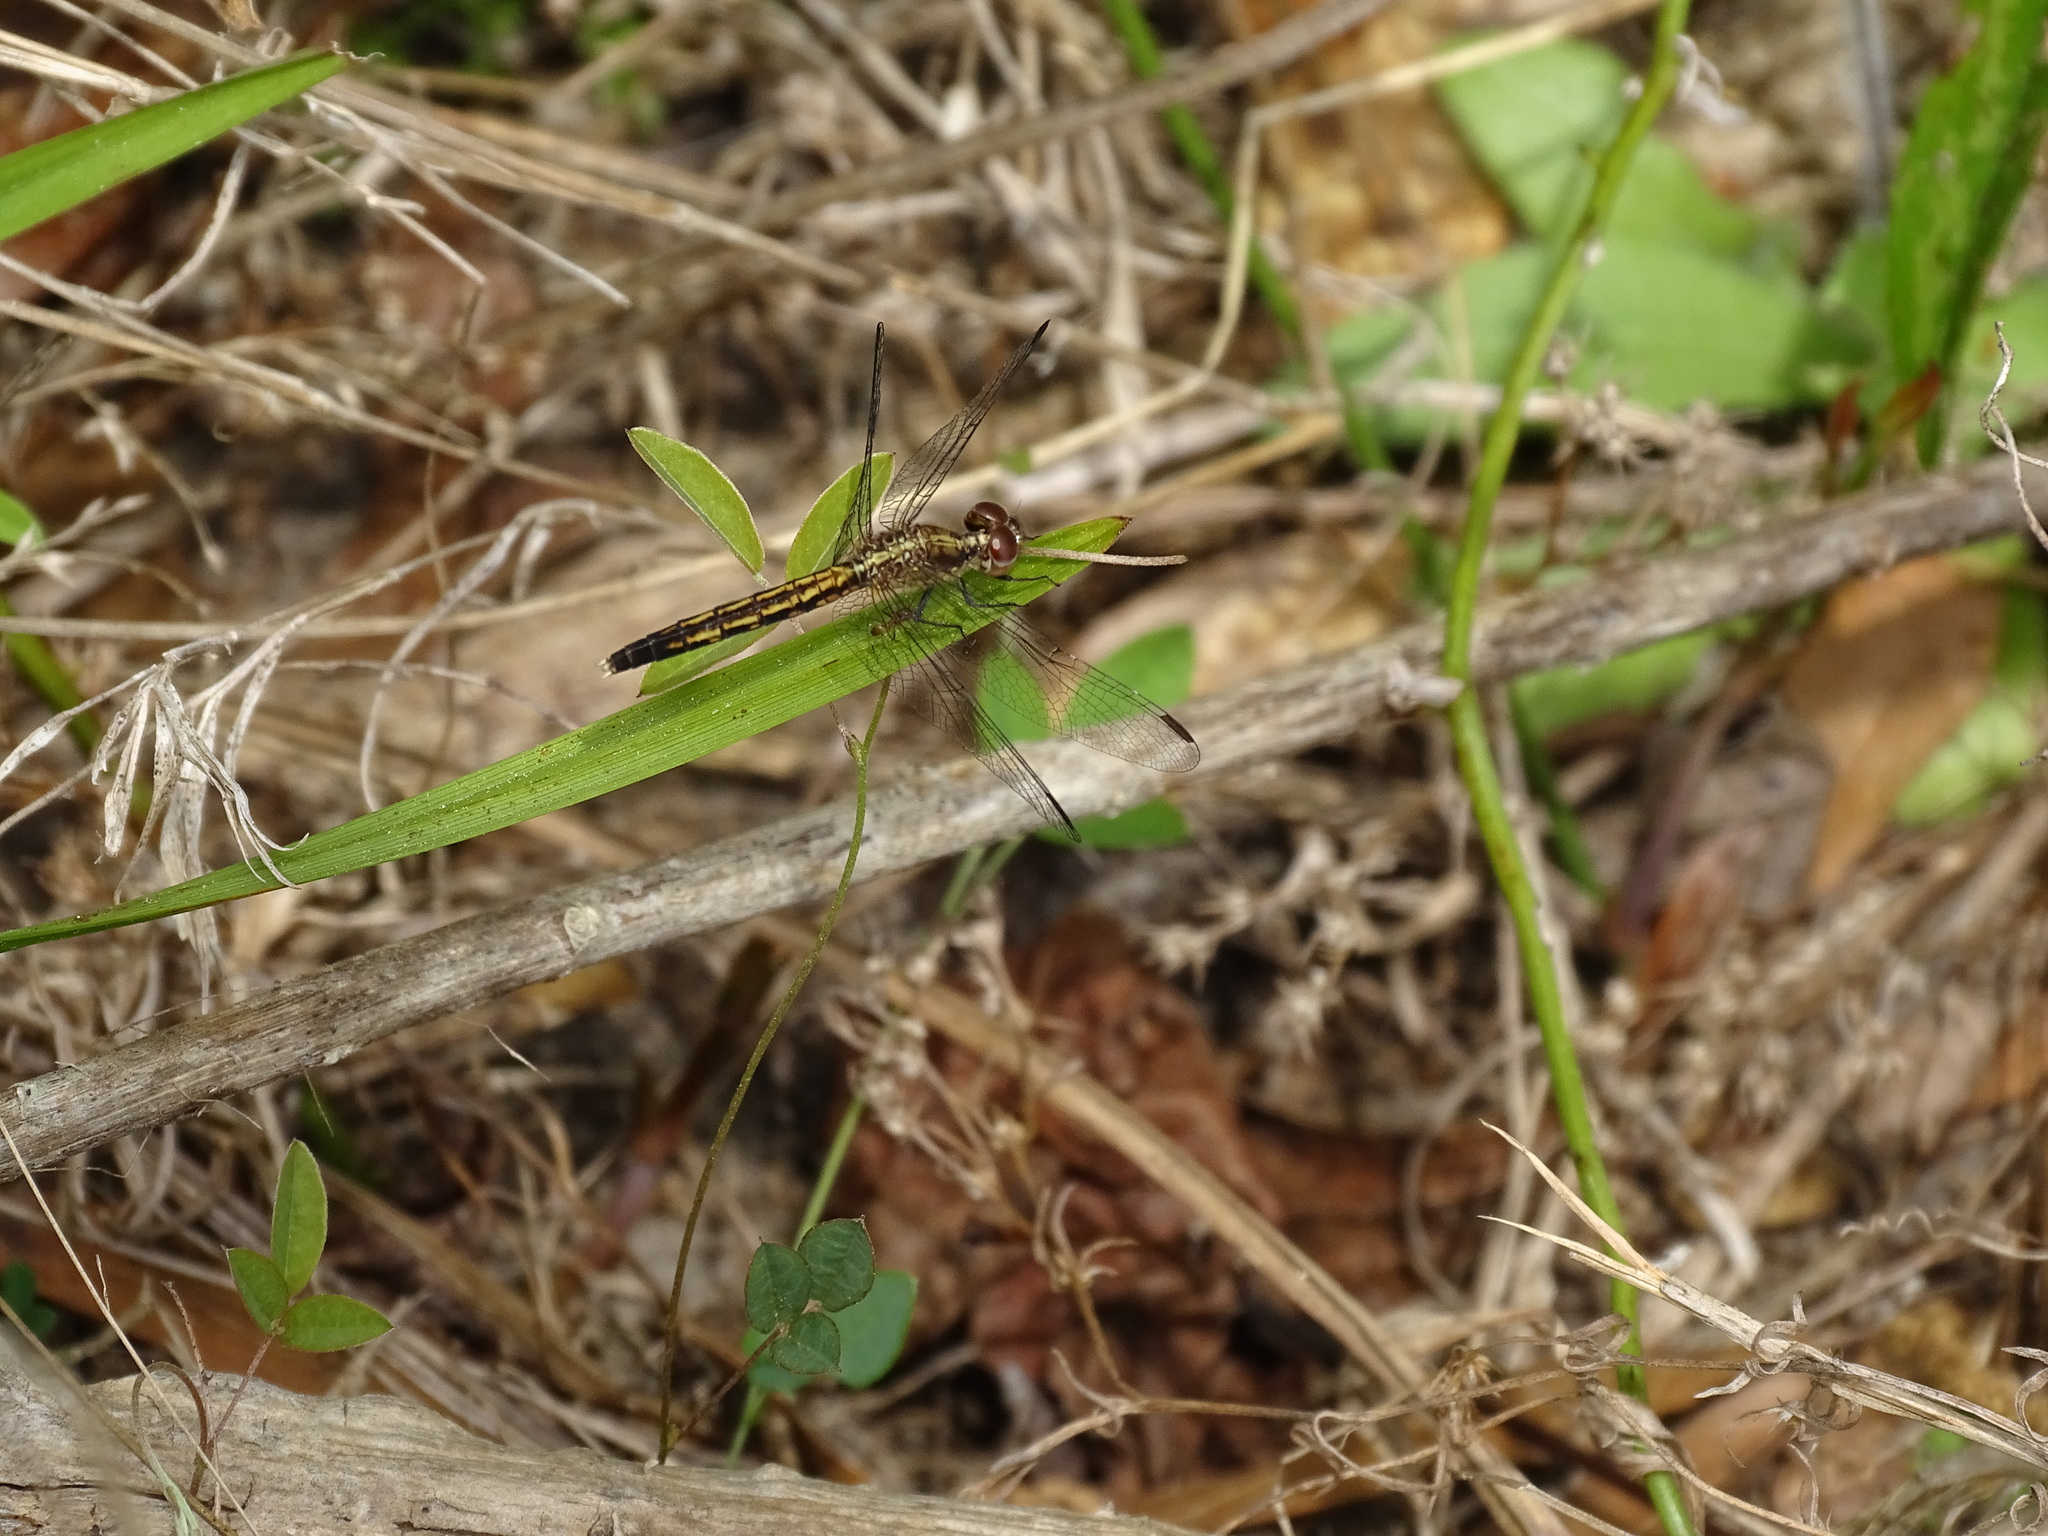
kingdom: Animalia
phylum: Arthropoda
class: Insecta
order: Odonata
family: Libellulidae
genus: Erythrodiplax
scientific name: Erythrodiplax minuscula
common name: Little blue dragonlet
